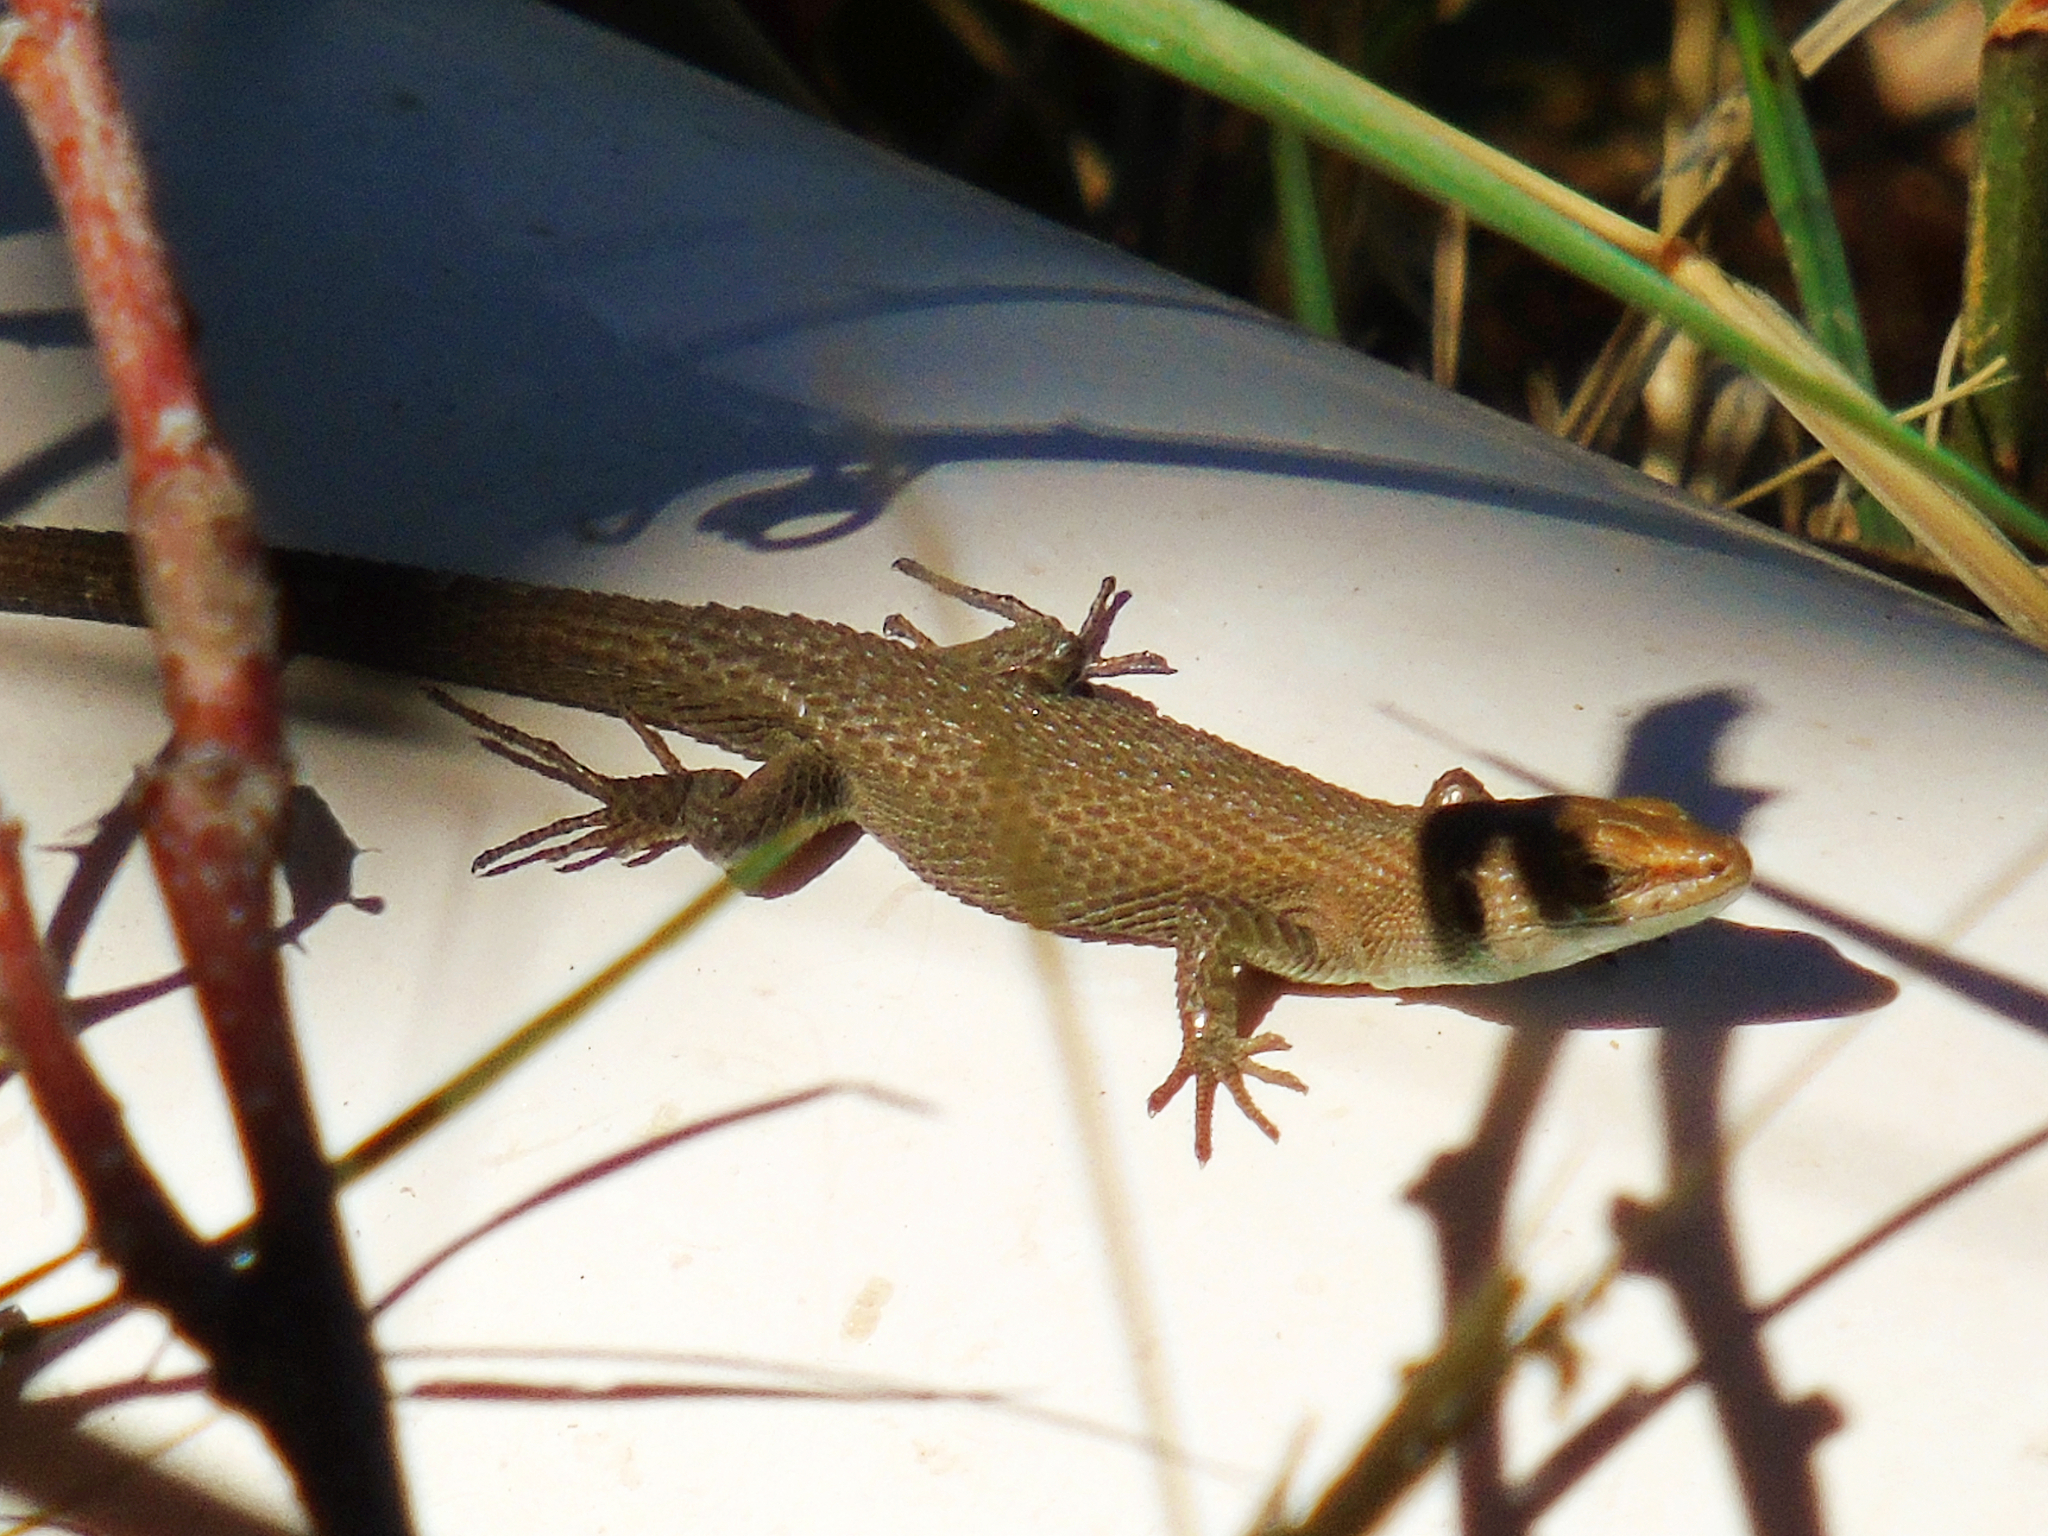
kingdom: Animalia
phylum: Chordata
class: Squamata
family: Lacertidae
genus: Algyroides
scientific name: Algyroides moreoticus
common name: Greek algyroides
